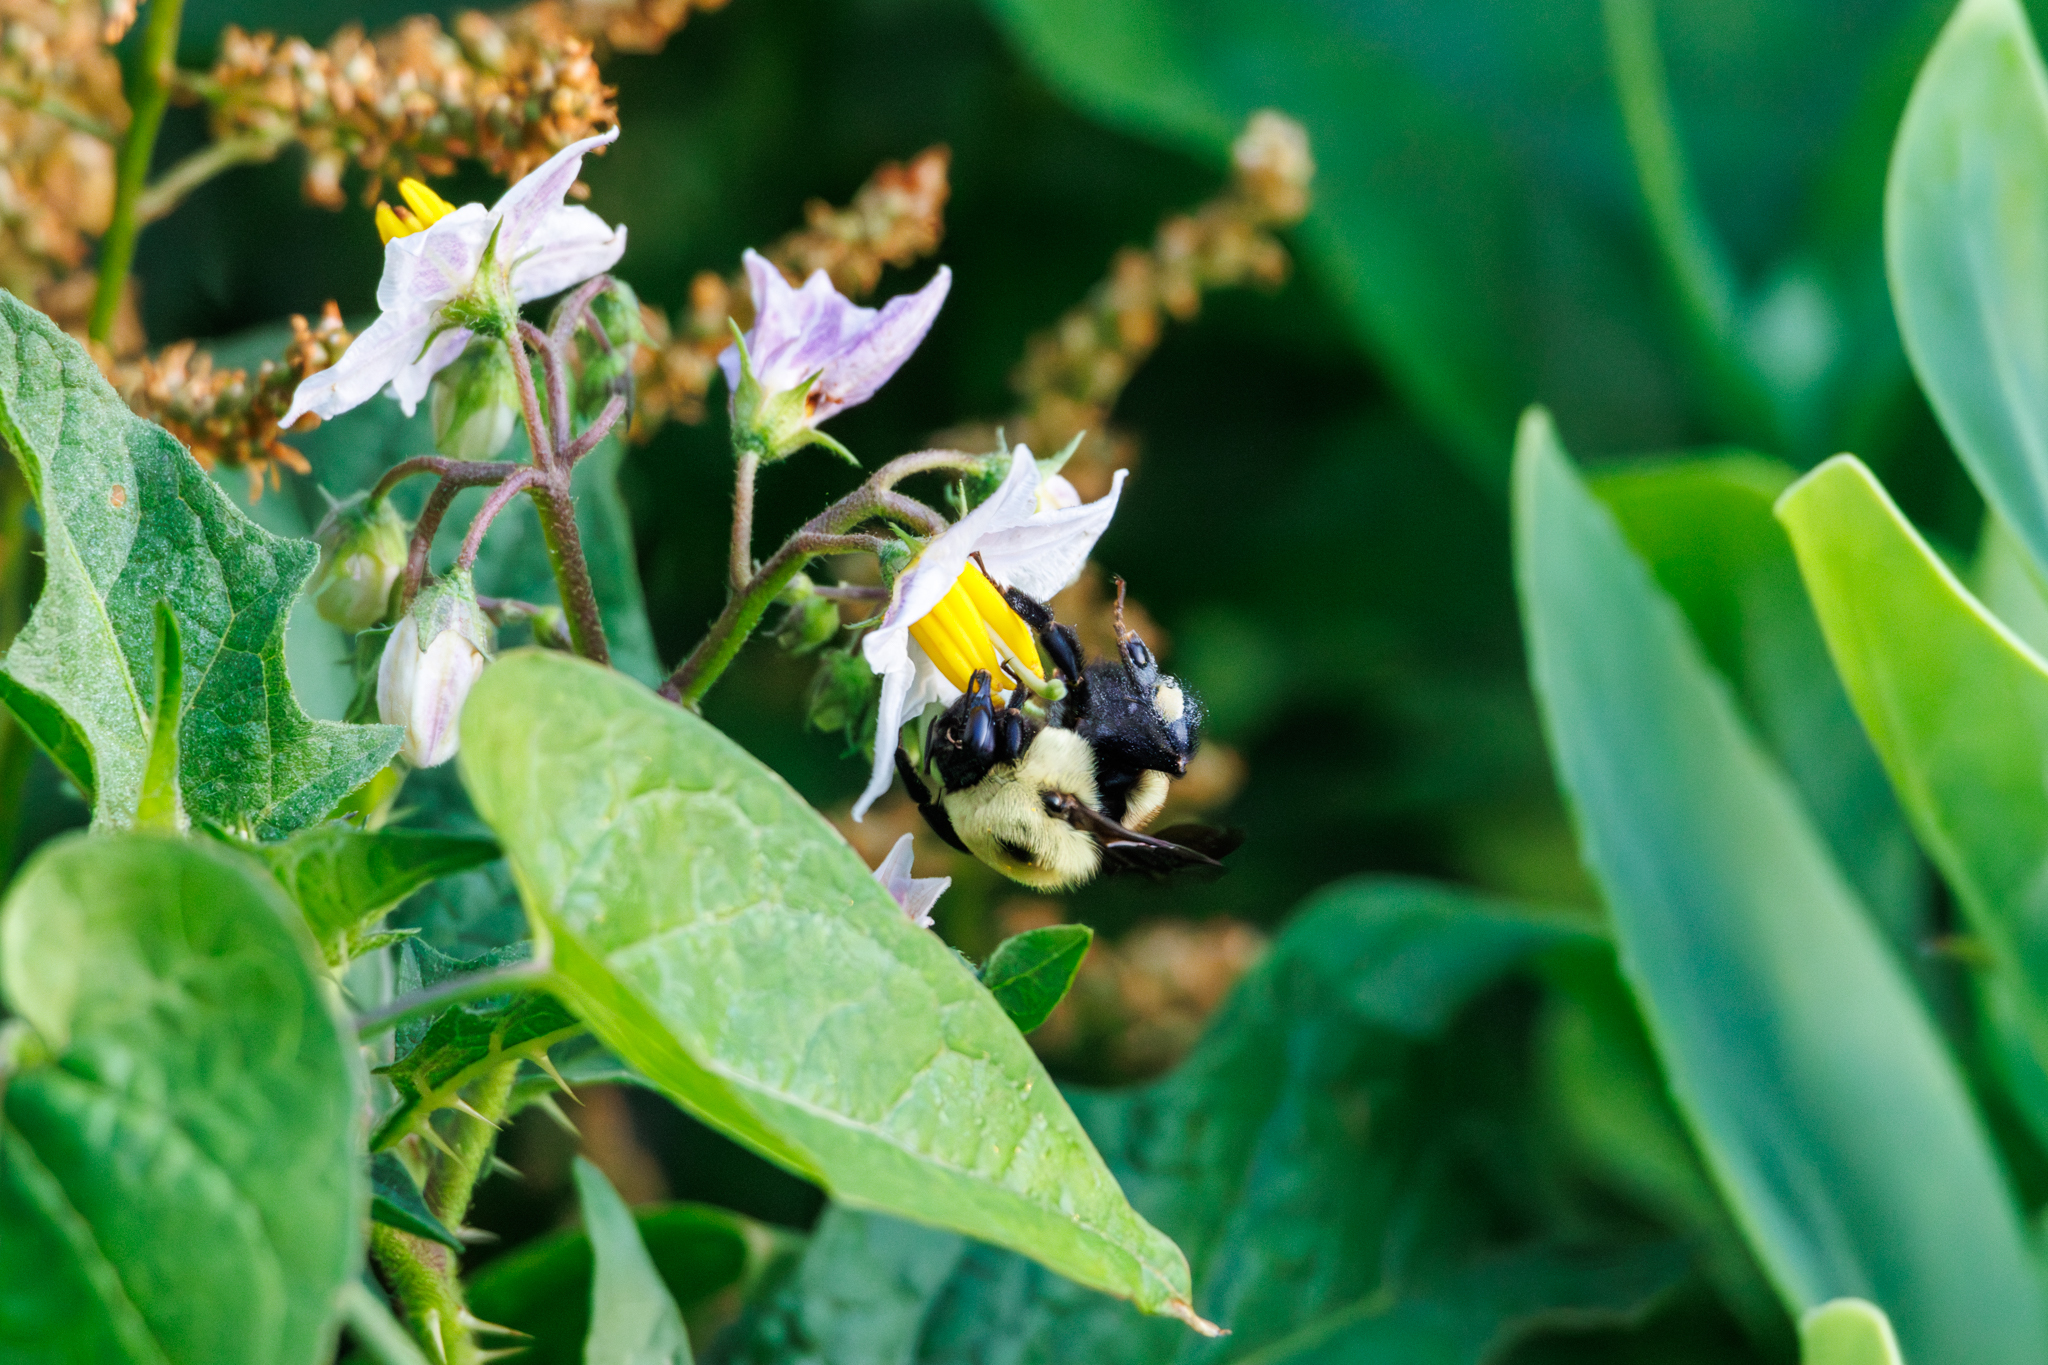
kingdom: Animalia
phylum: Arthropoda
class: Insecta
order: Hymenoptera
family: Apidae
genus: Bombus
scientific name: Bombus griseocollis
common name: Brown-belted bumble bee
